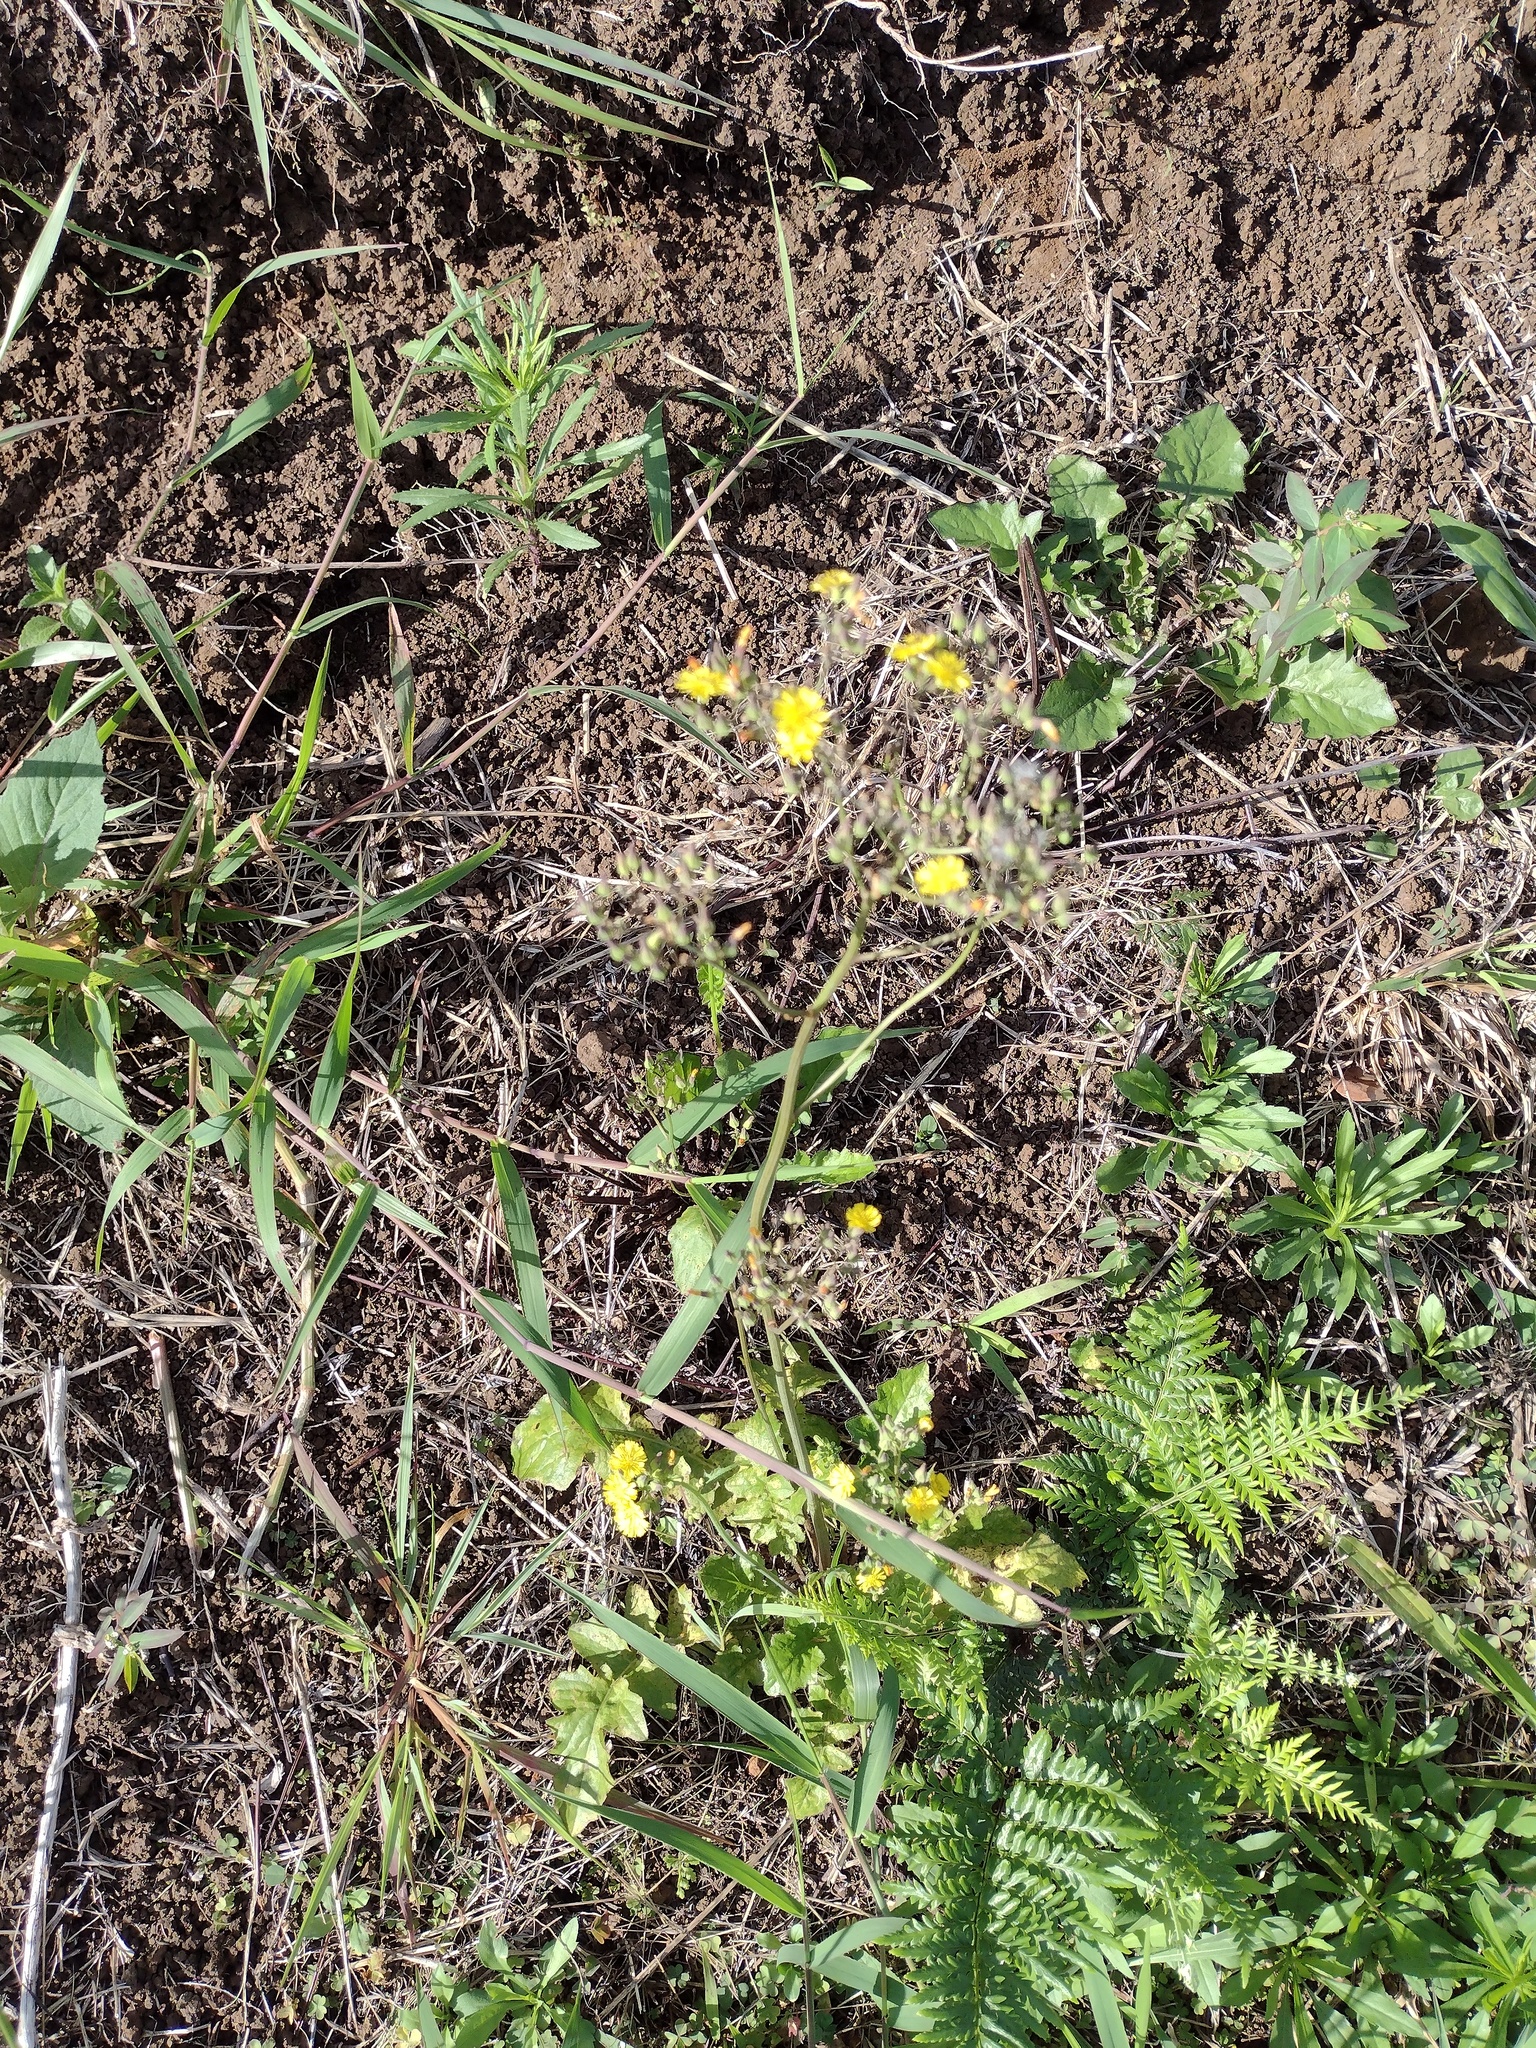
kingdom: Plantae
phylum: Tracheophyta
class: Magnoliopsida
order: Asterales
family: Asteraceae
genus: Youngia
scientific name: Youngia japonica
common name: Oriental false hawksbeard
